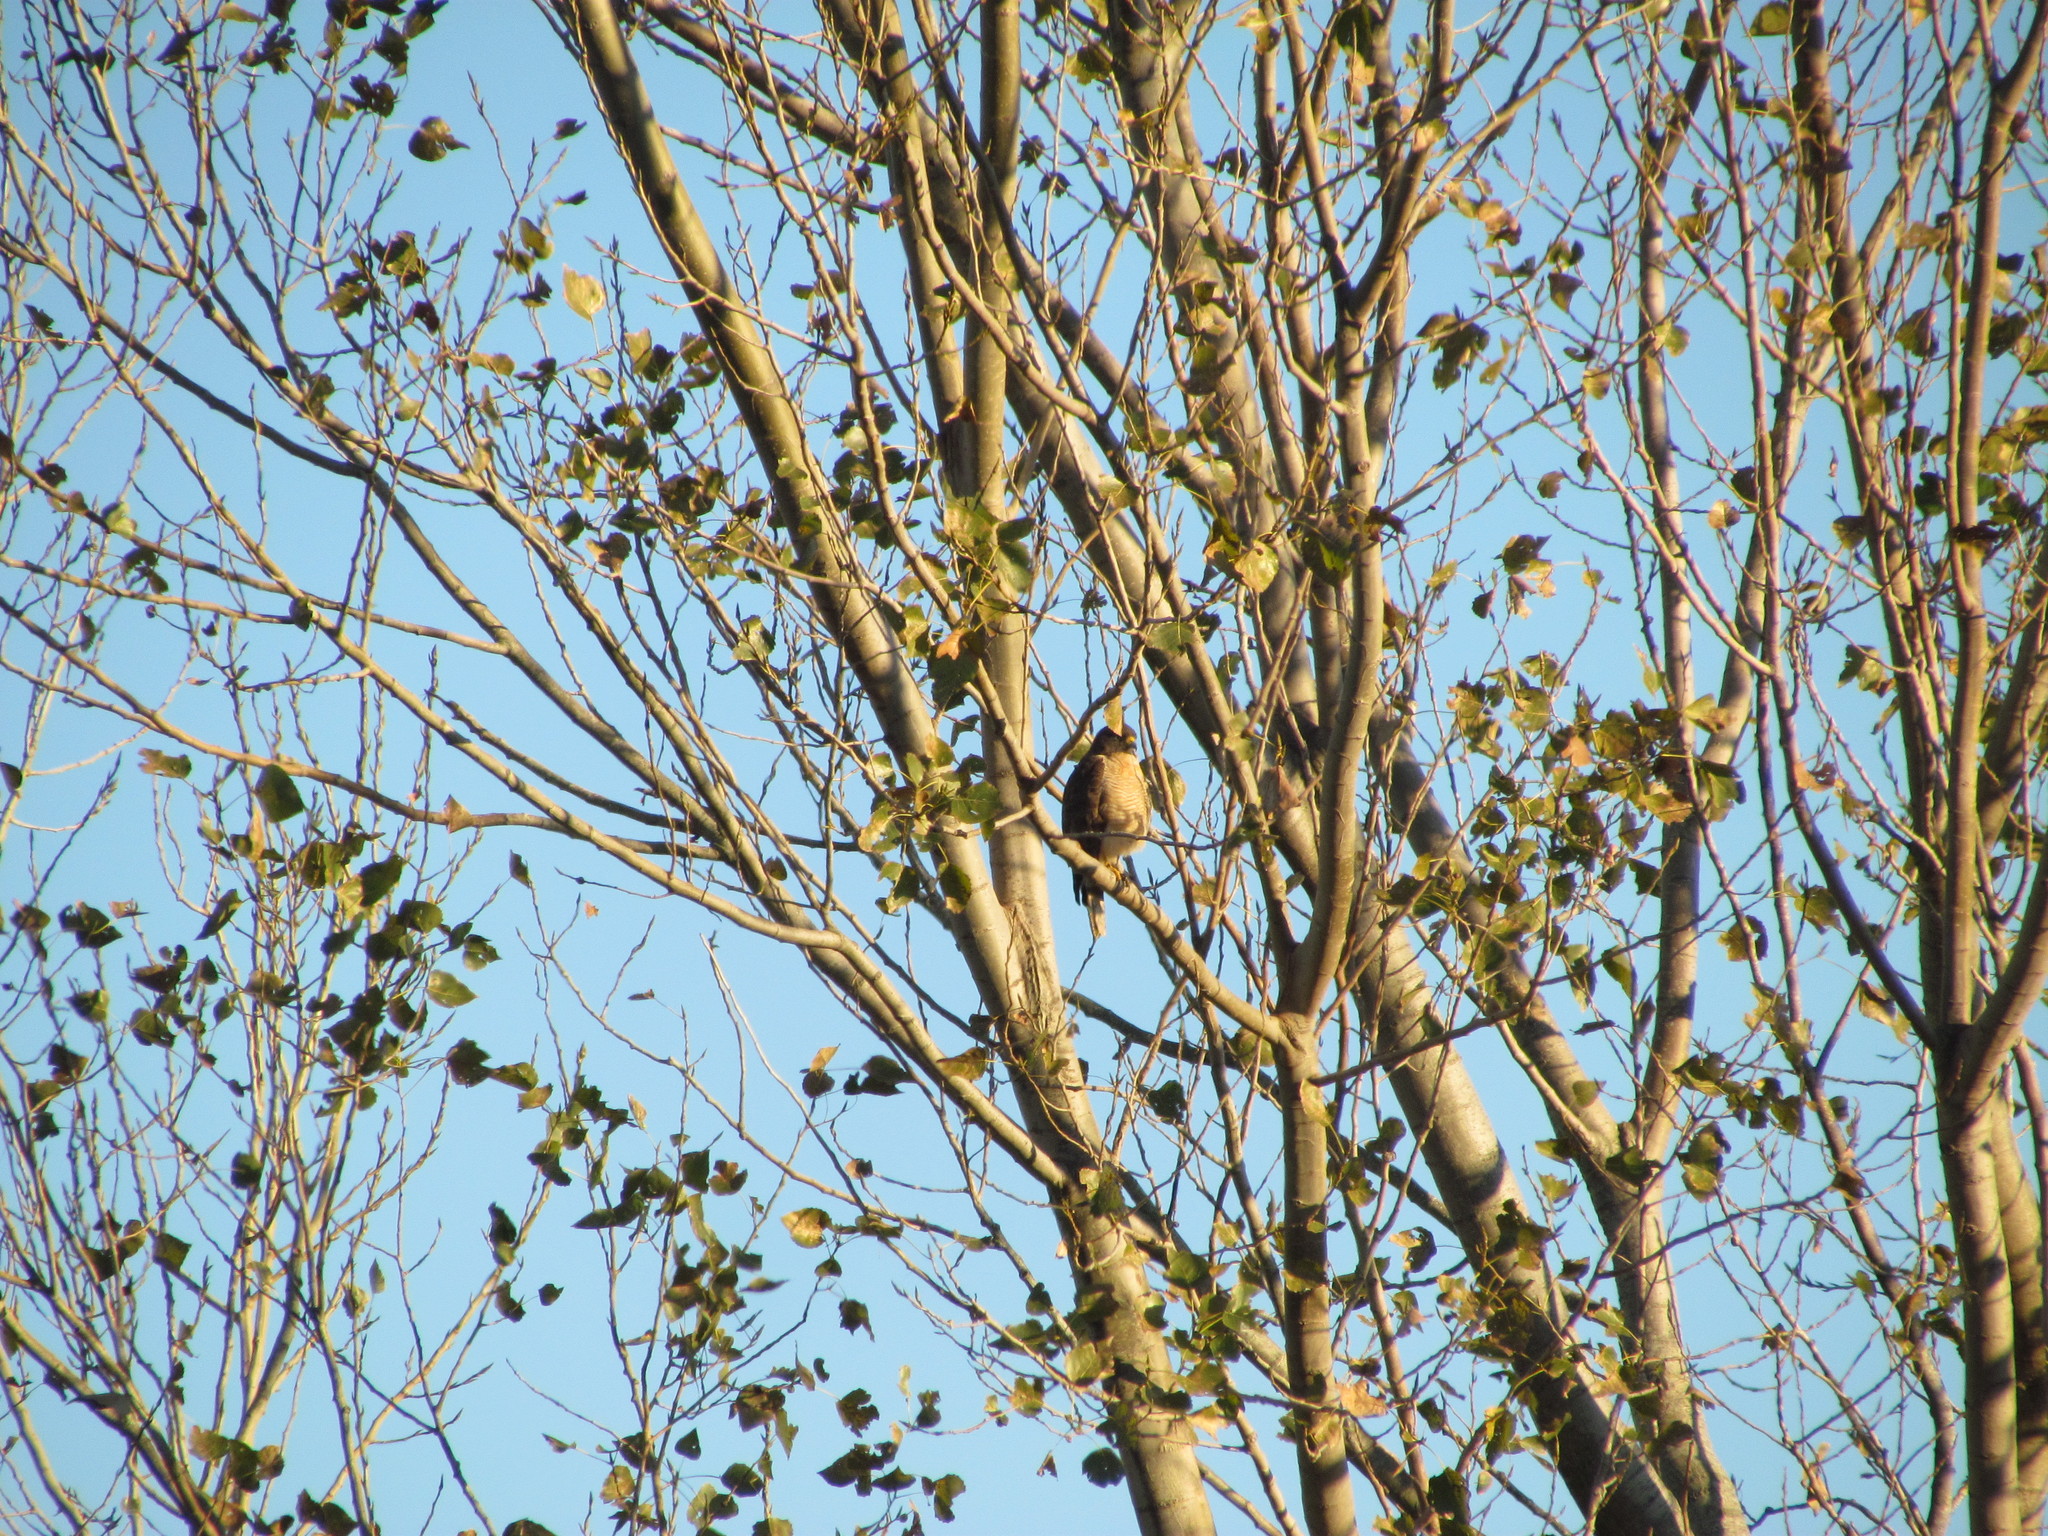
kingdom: Animalia
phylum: Chordata
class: Aves
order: Accipitriformes
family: Accipitridae
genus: Rupornis
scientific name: Rupornis magnirostris
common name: Roadside hawk
